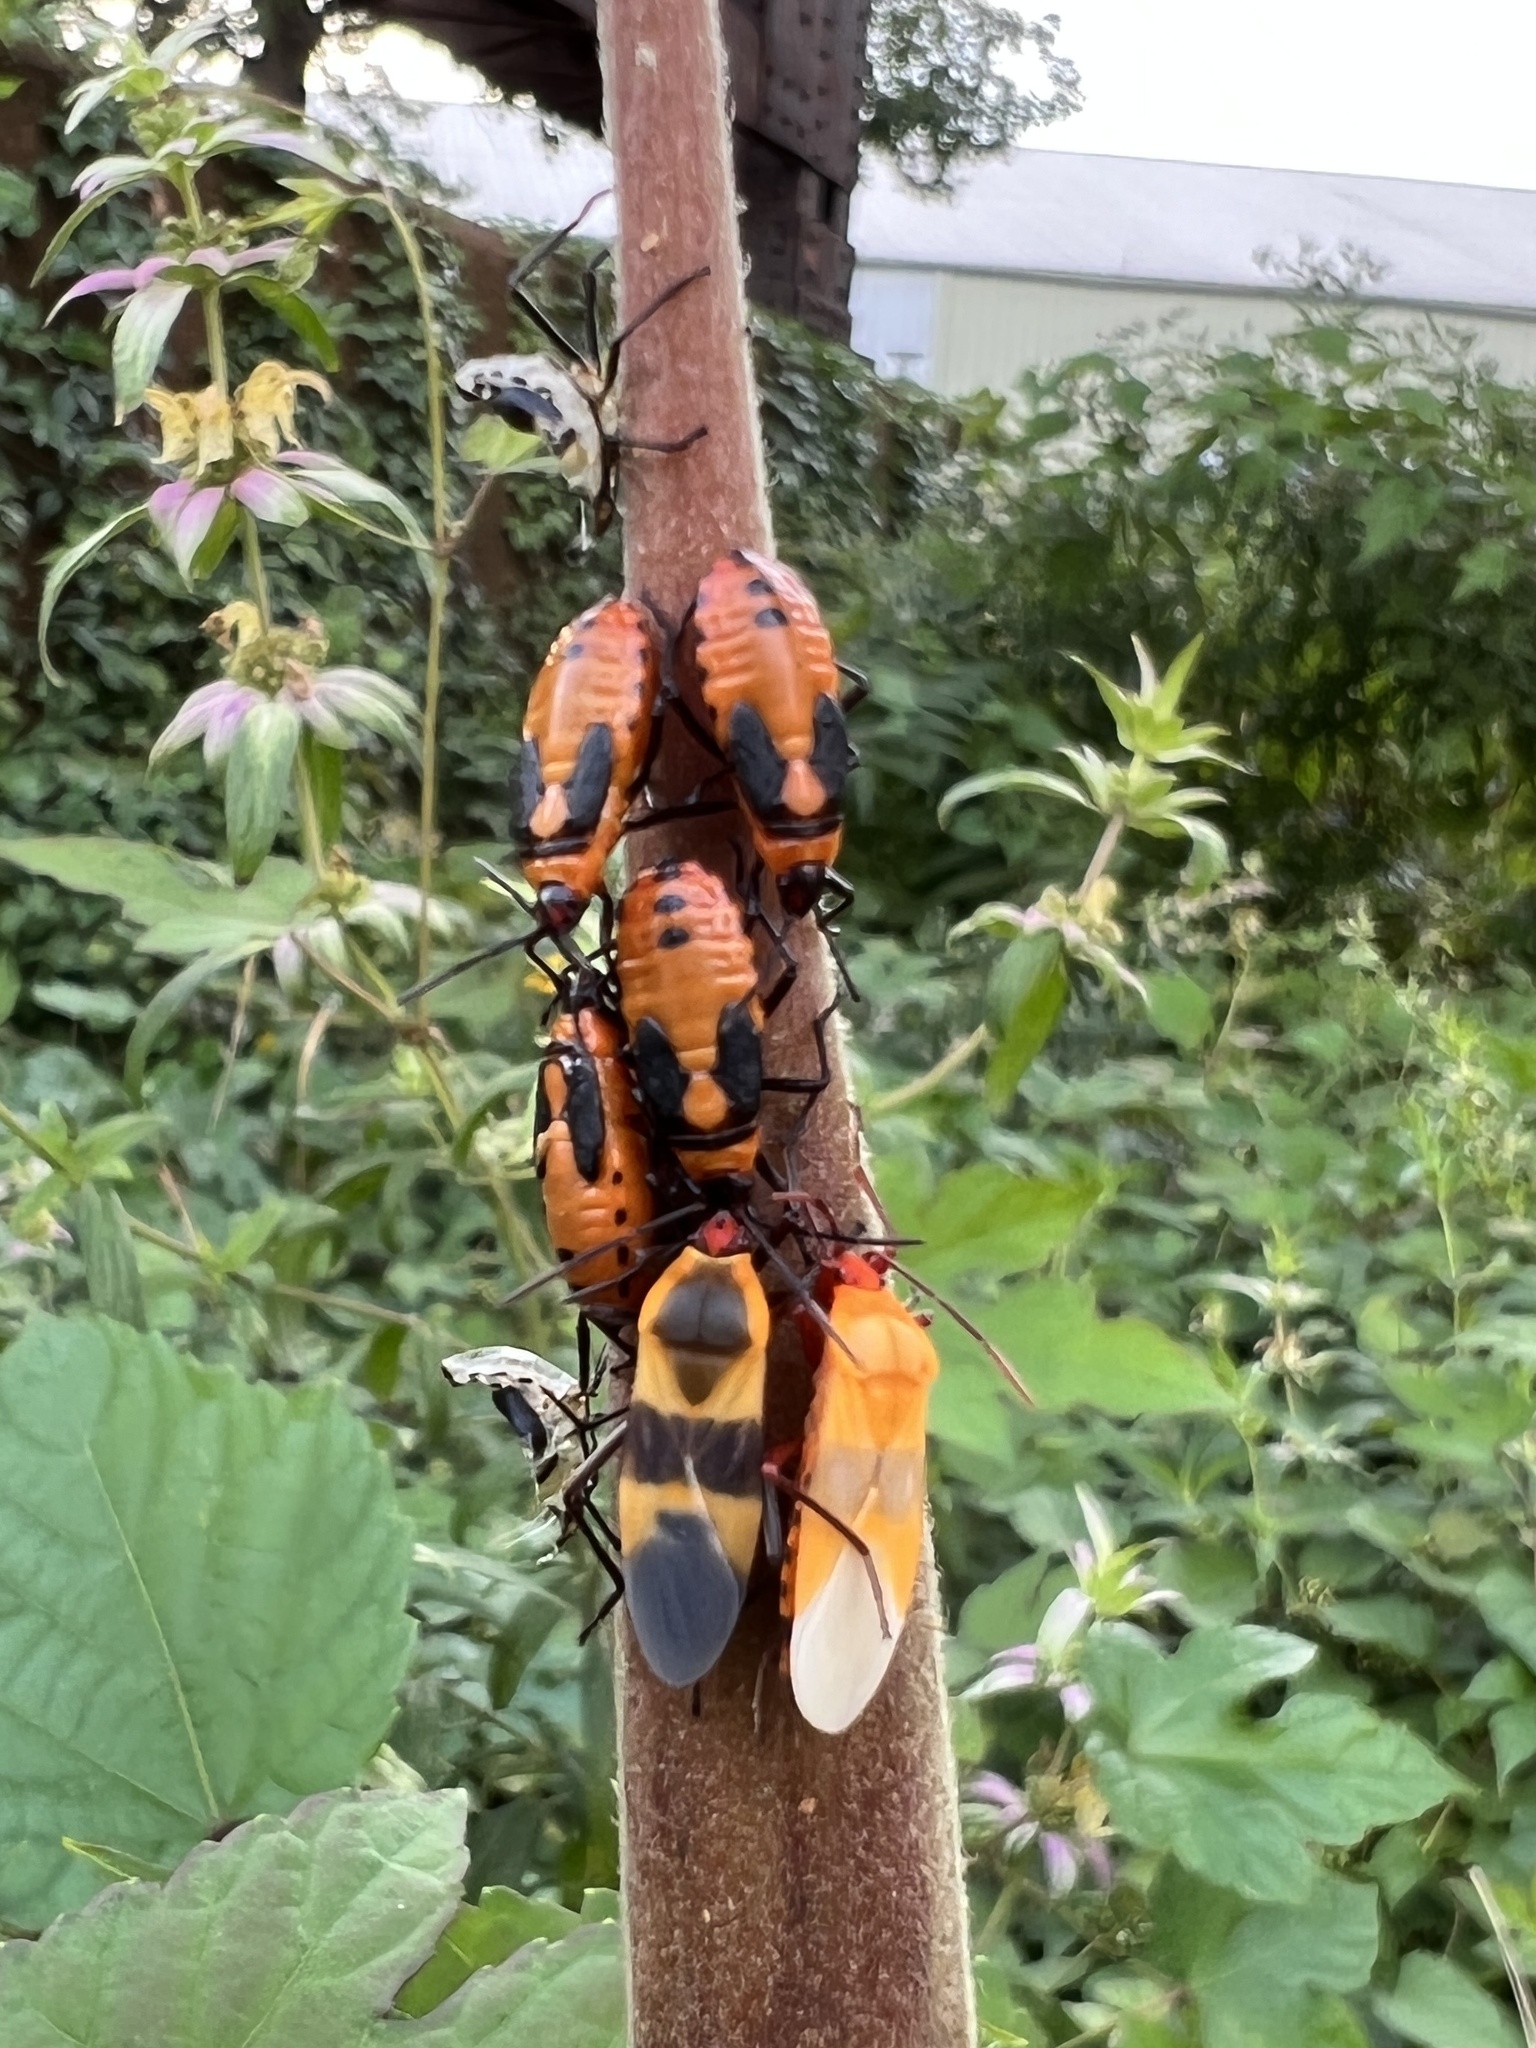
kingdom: Animalia
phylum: Arthropoda
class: Insecta
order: Hemiptera
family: Lygaeidae
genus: Oncopeltus
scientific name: Oncopeltus fasciatus
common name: Large milkweed bug
